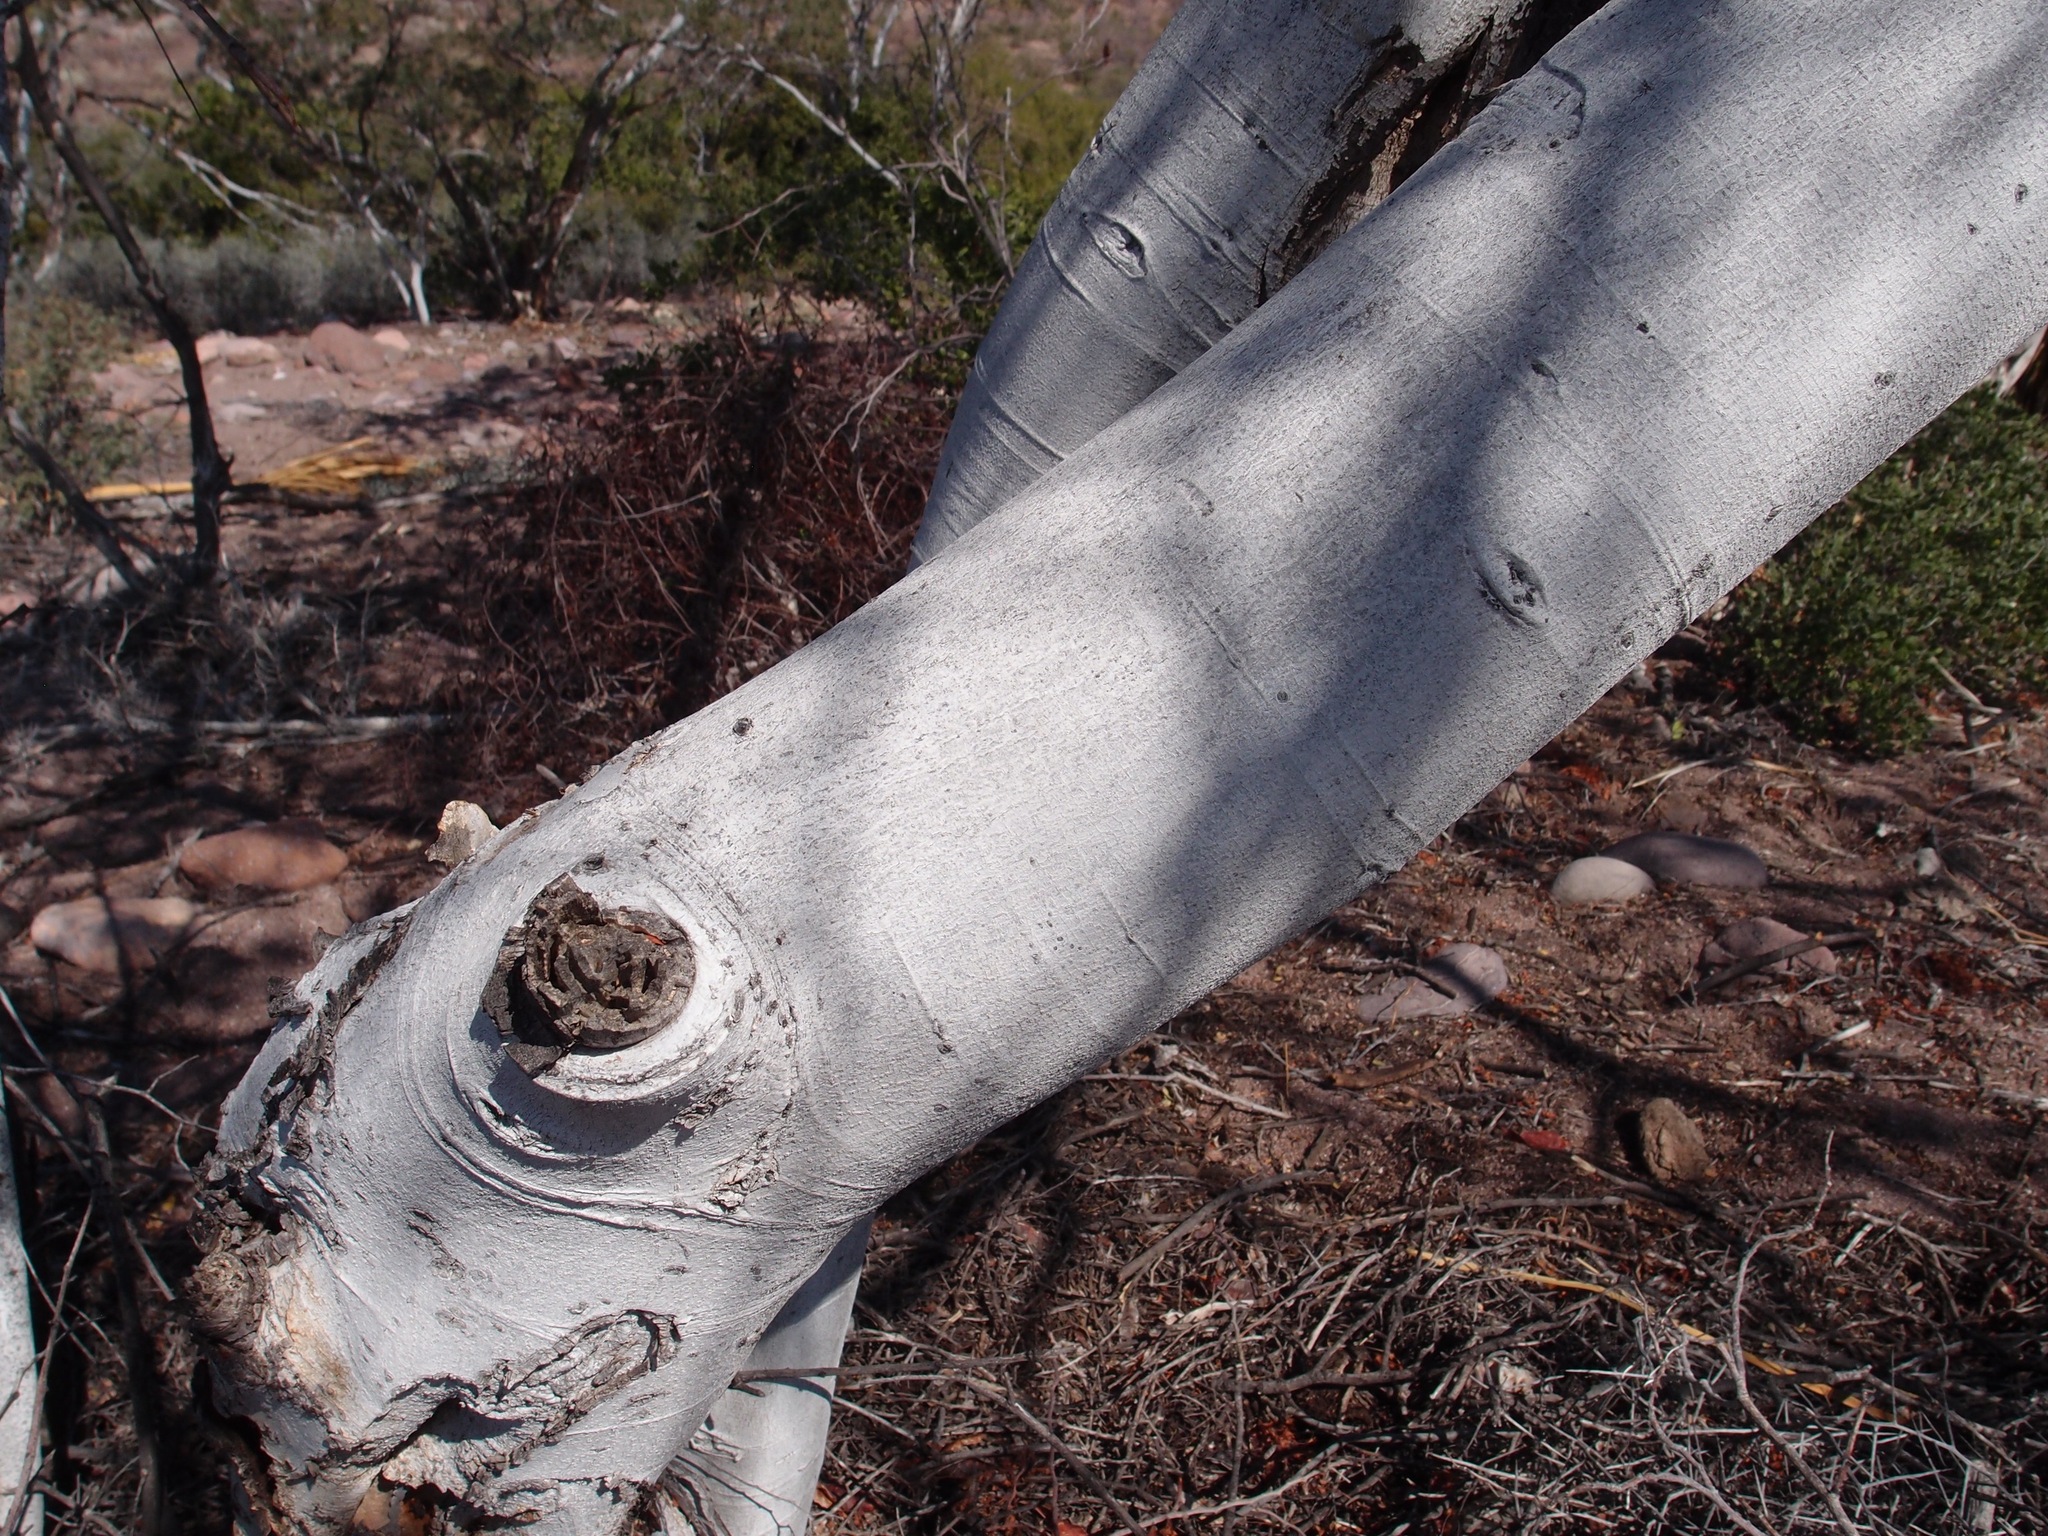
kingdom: Plantae
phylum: Tracheophyta
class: Magnoliopsida
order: Fabales
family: Fabaceae
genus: Lysiloma
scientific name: Lysiloma candidum
